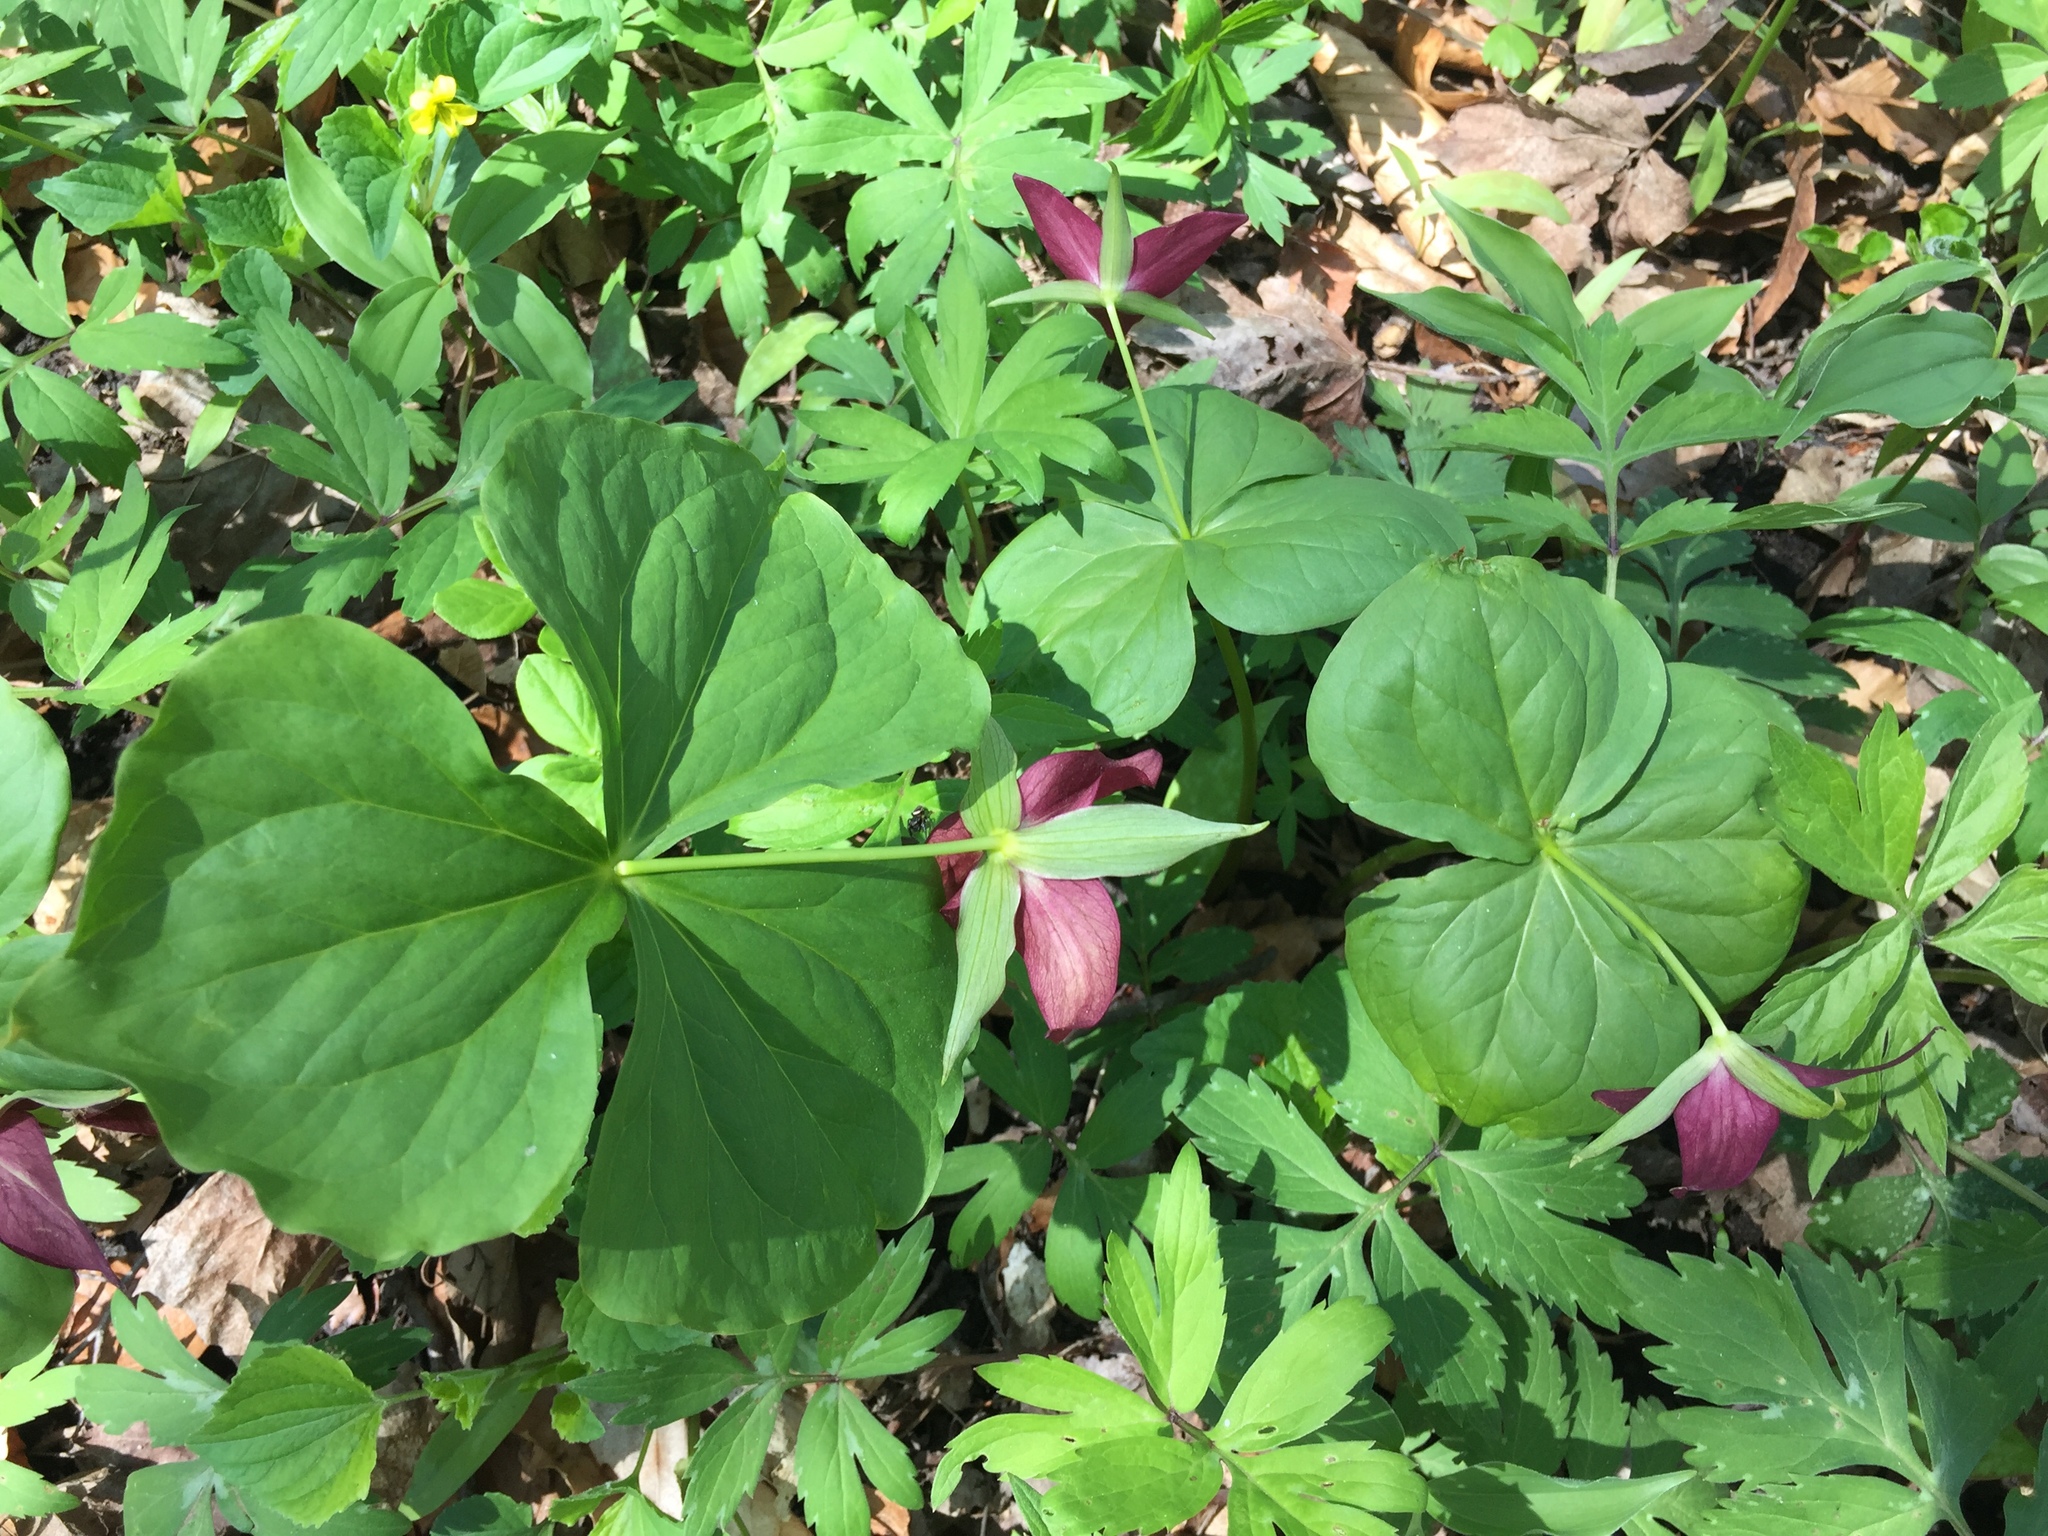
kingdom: Plantae
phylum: Tracheophyta
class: Liliopsida
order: Liliales
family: Melanthiaceae
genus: Trillium
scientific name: Trillium erectum
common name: Purple trillium
